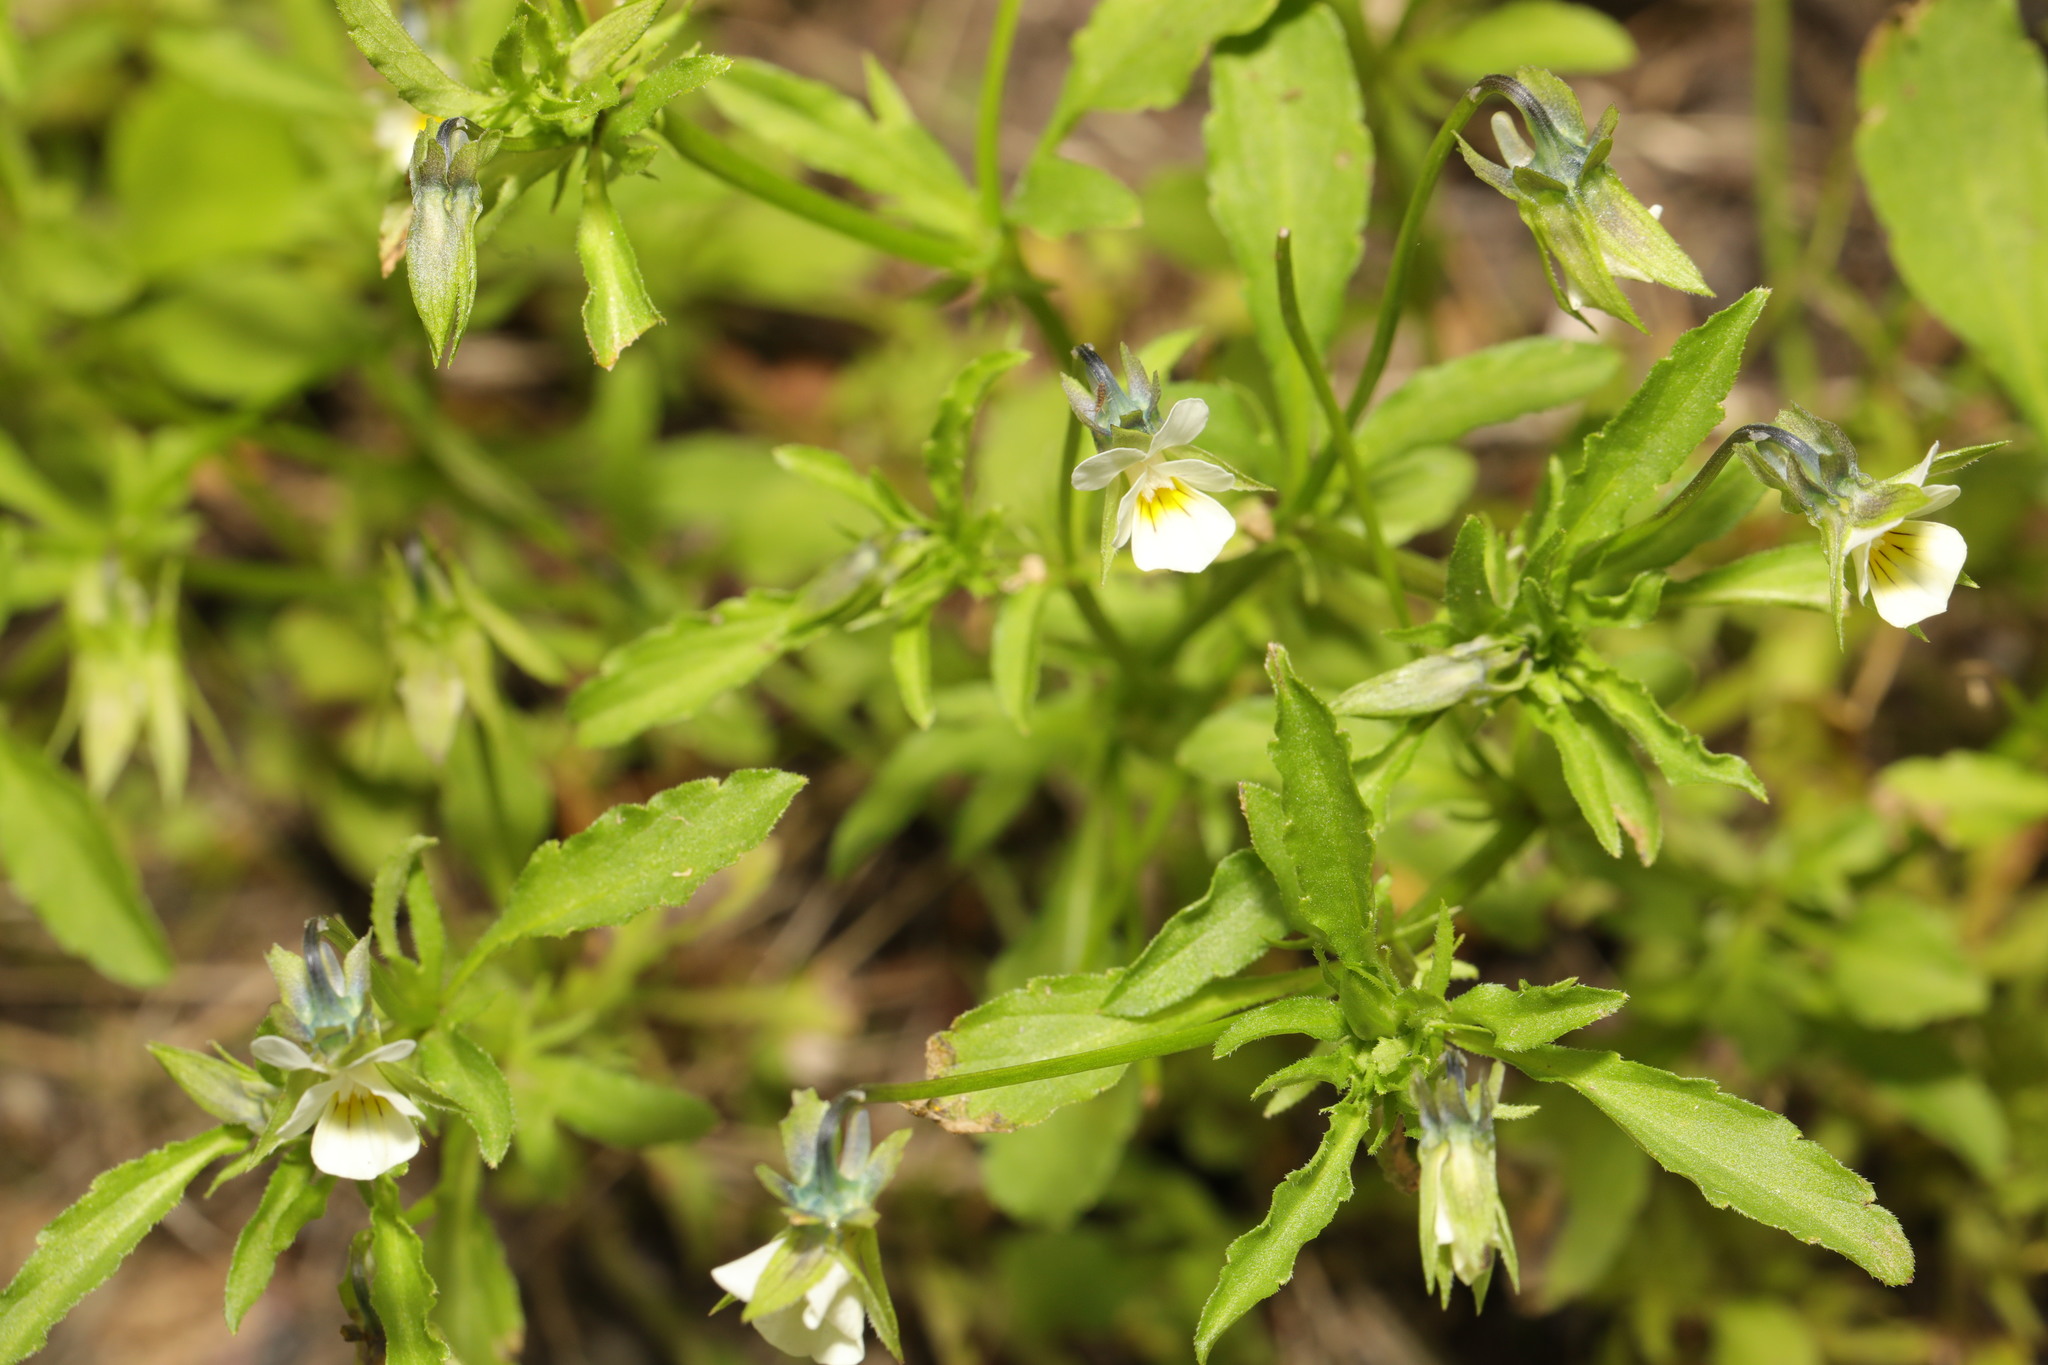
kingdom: Plantae
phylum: Tracheophyta
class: Magnoliopsida
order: Malpighiales
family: Violaceae
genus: Viola
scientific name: Viola arvensis
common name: Field pansy
